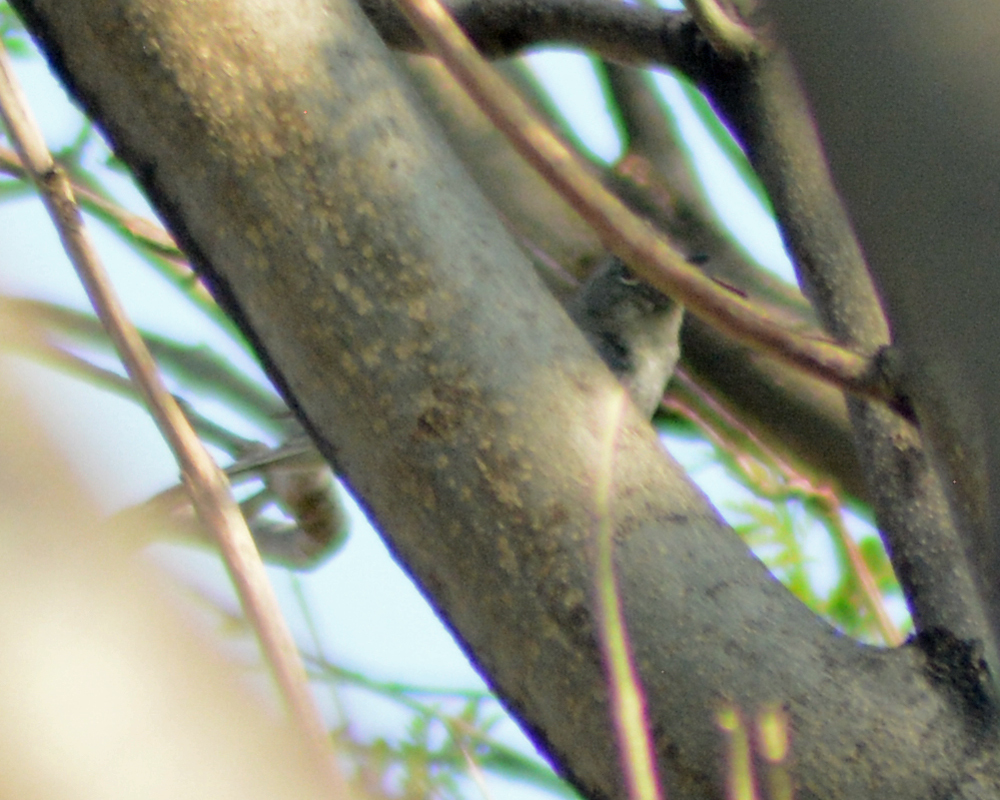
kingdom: Animalia
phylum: Chordata
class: Aves
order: Passeriformes
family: Parulidae
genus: Setophaga
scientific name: Setophaga coronata
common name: Myrtle warbler
